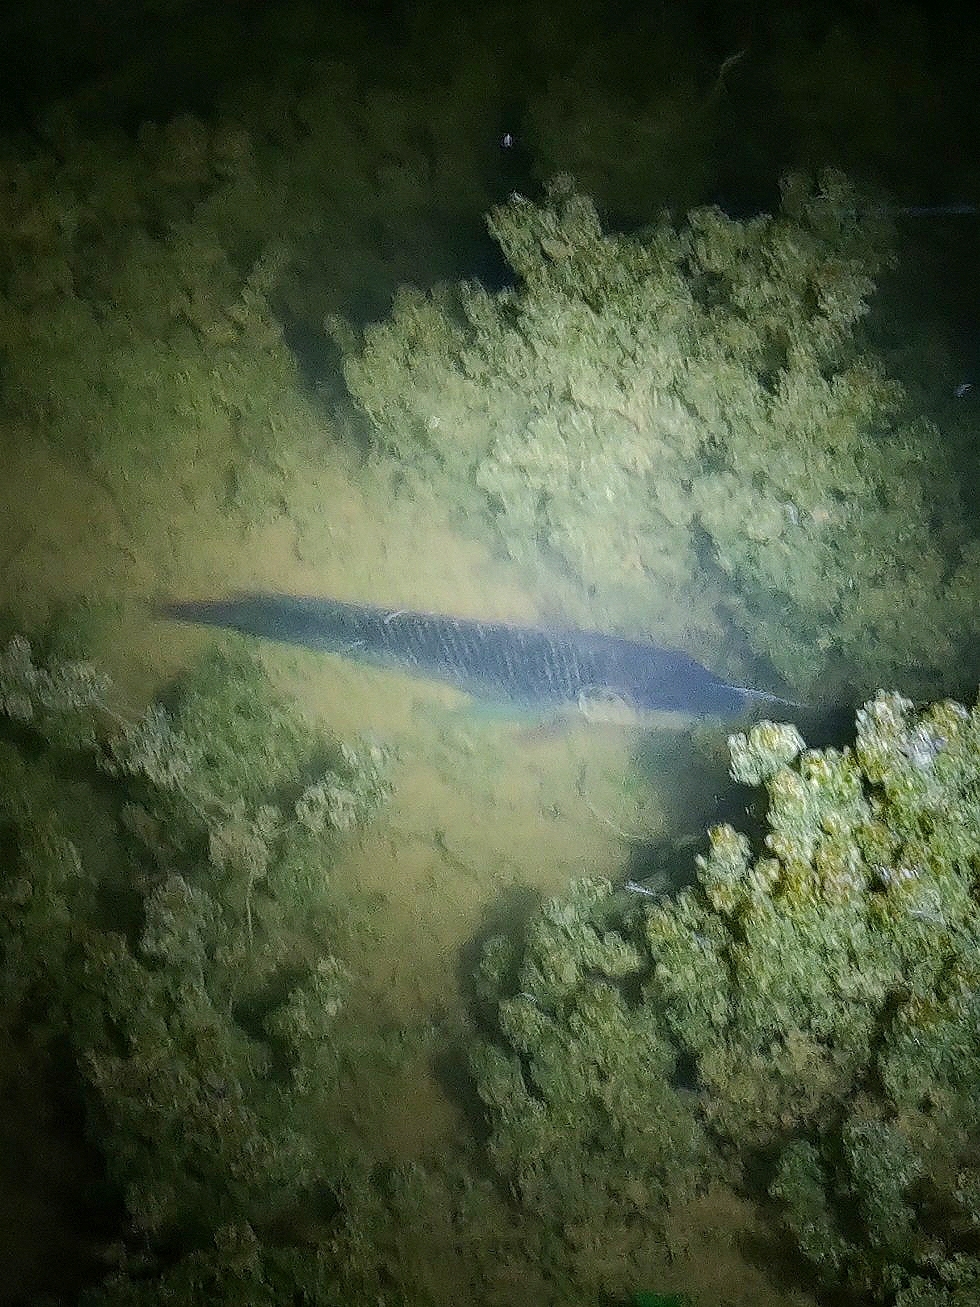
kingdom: Animalia
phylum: Chordata
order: Perciformes
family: Cichlidae
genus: Oreochromis
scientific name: Oreochromis mossambicus
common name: Mozambique tilapia
